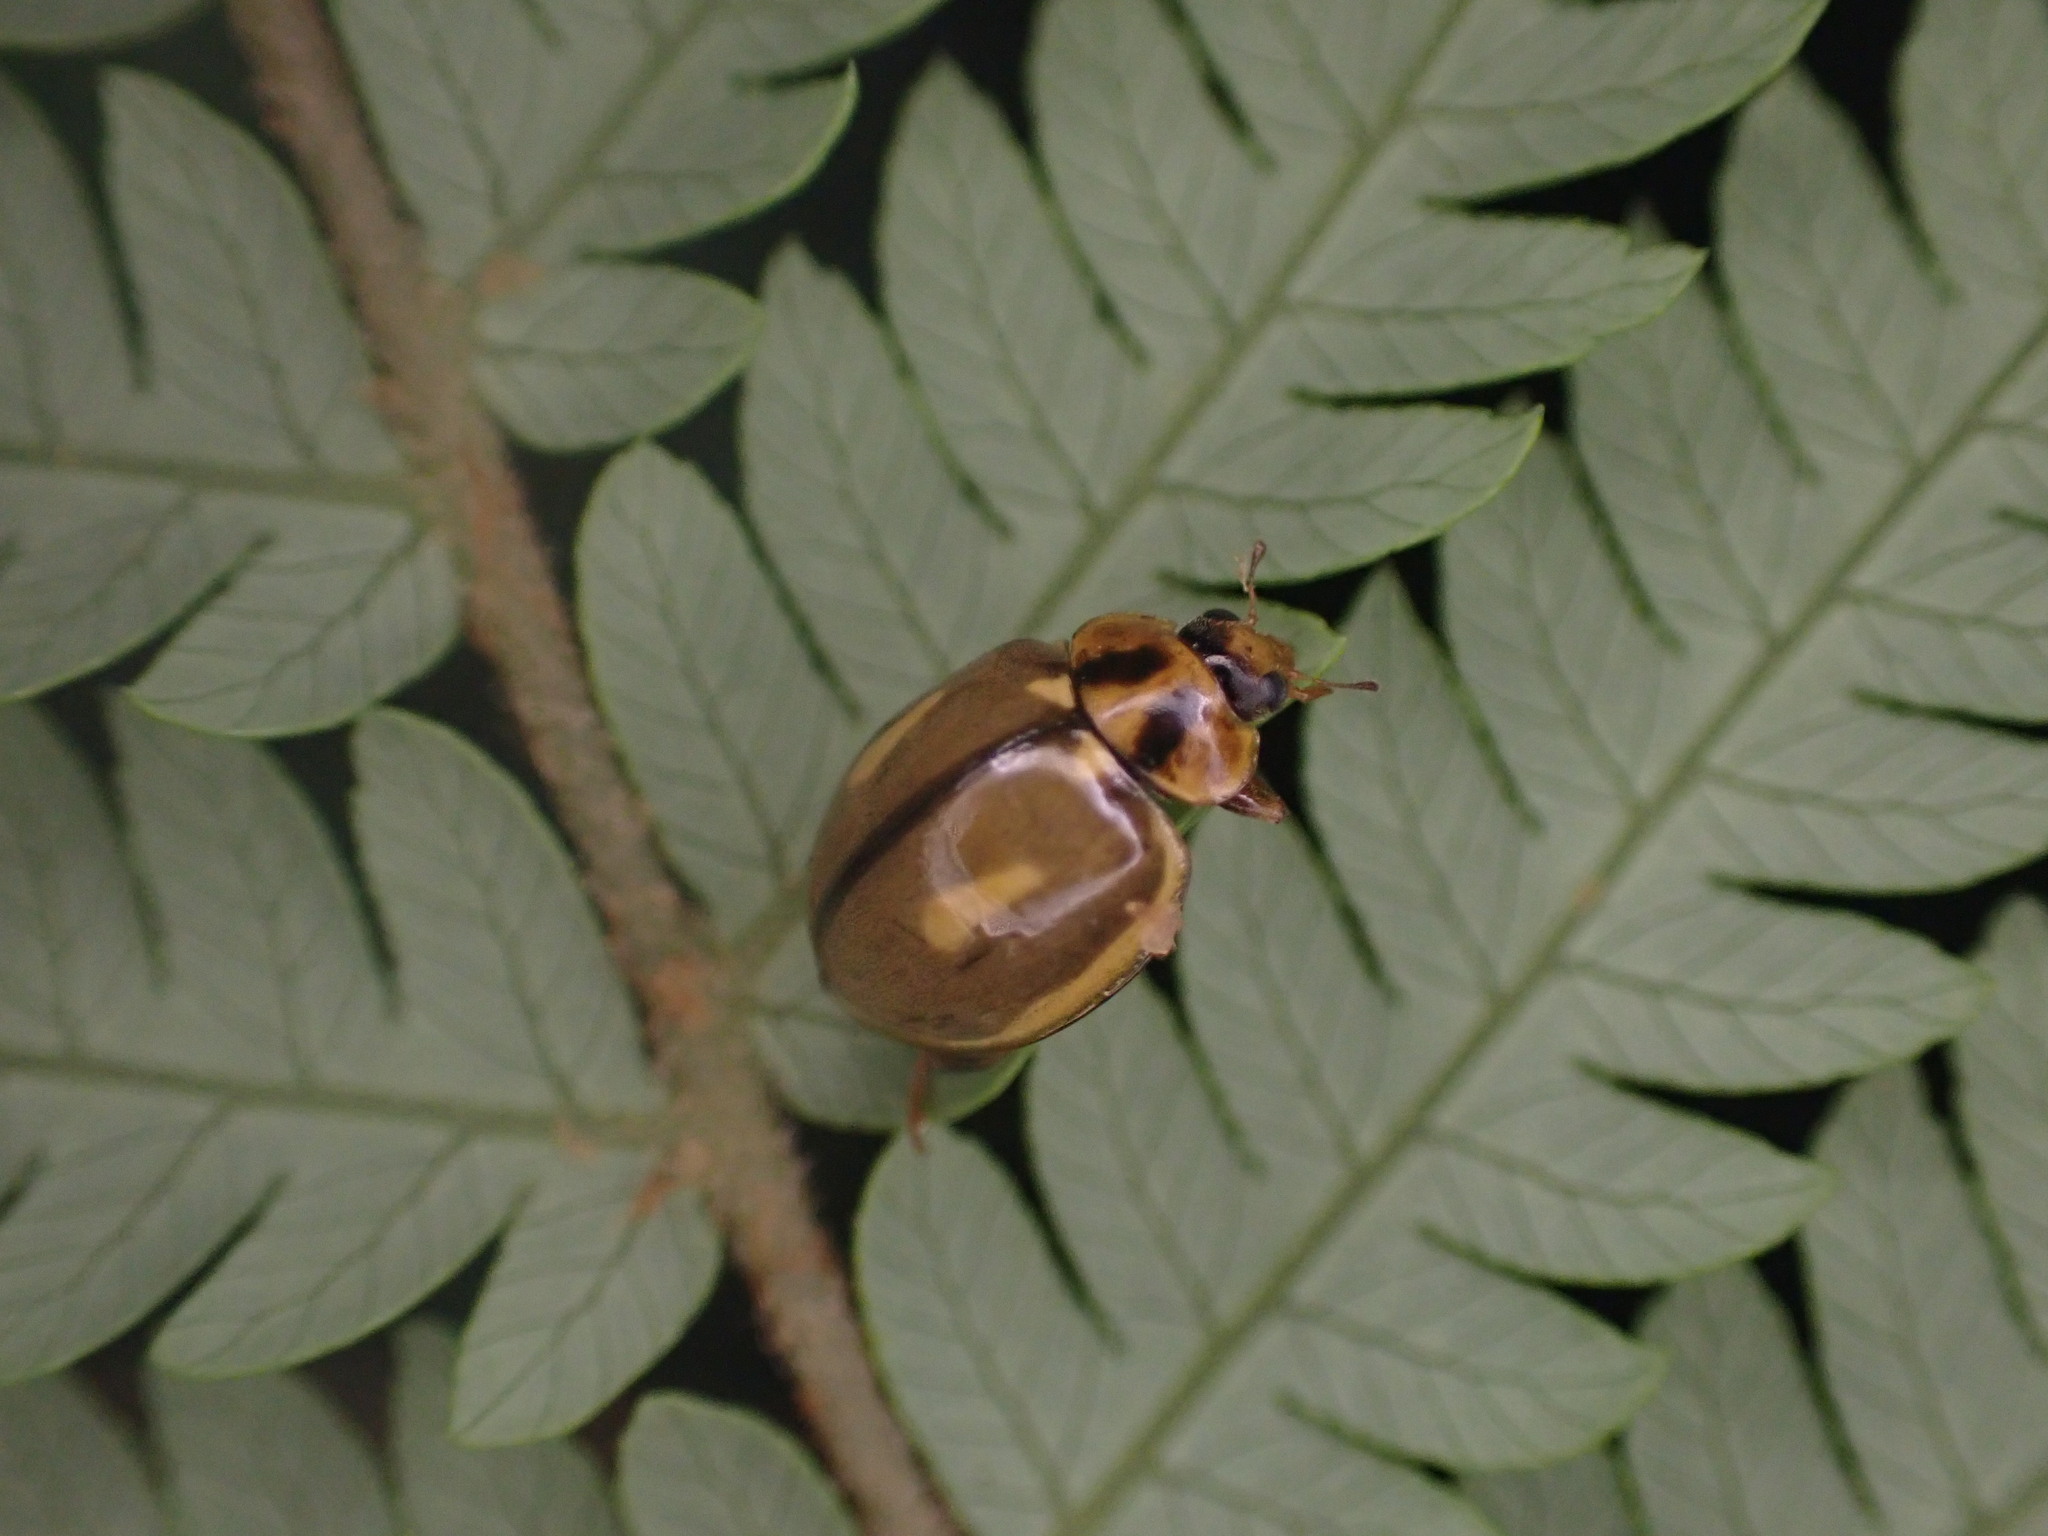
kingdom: Animalia
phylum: Arthropoda
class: Insecta
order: Coleoptera
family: Coccinellidae
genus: Harmonia
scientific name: Harmonia
